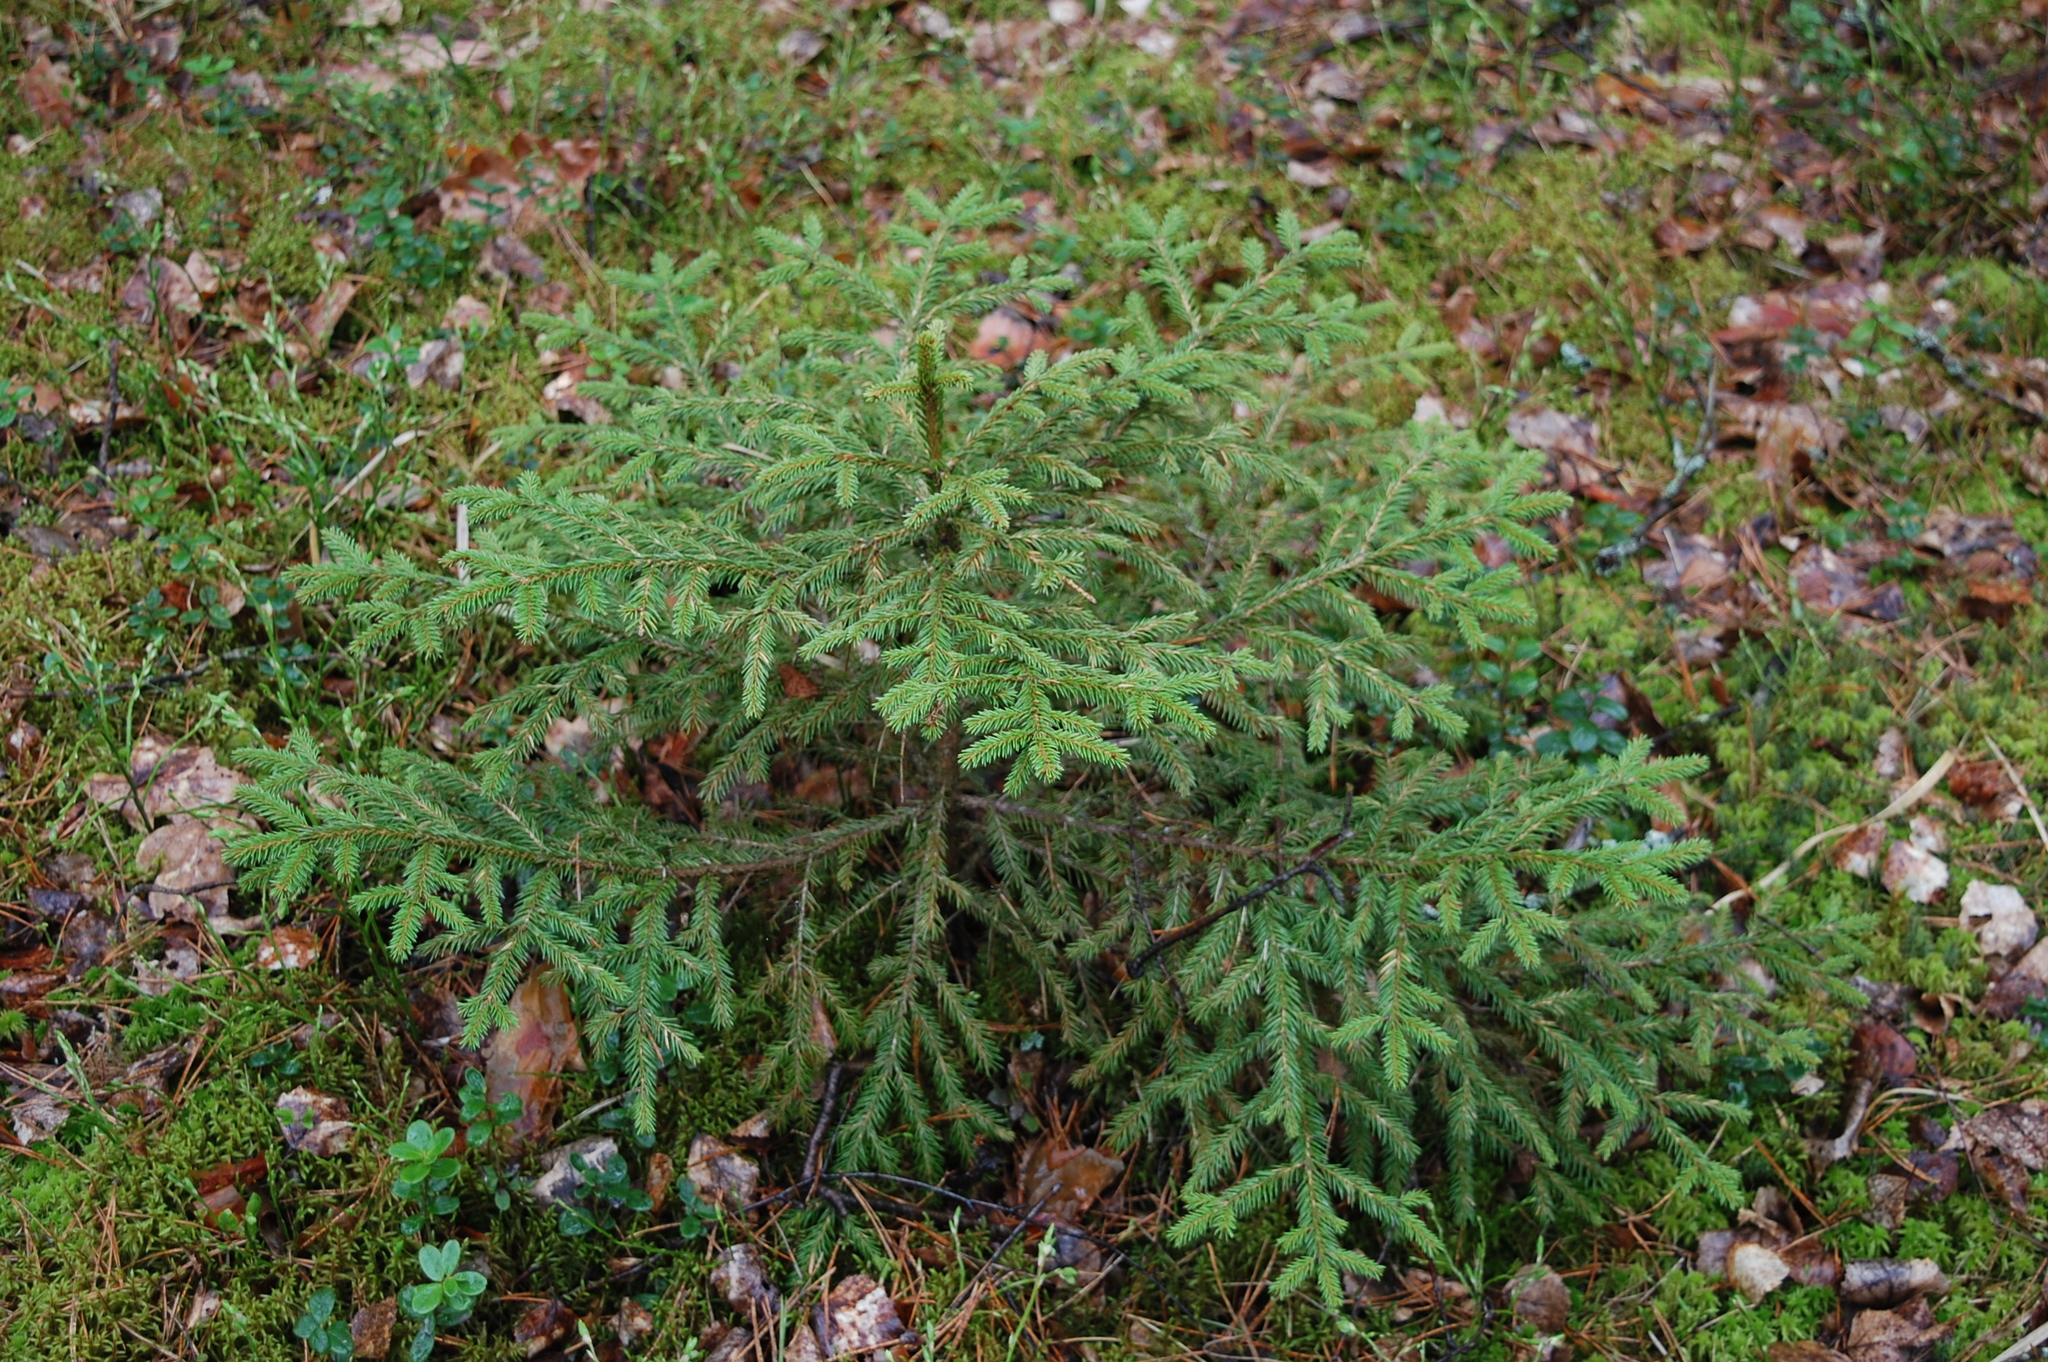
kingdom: Plantae
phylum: Tracheophyta
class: Pinopsida
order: Pinales
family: Pinaceae
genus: Picea
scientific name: Picea abies
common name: Norway spruce
